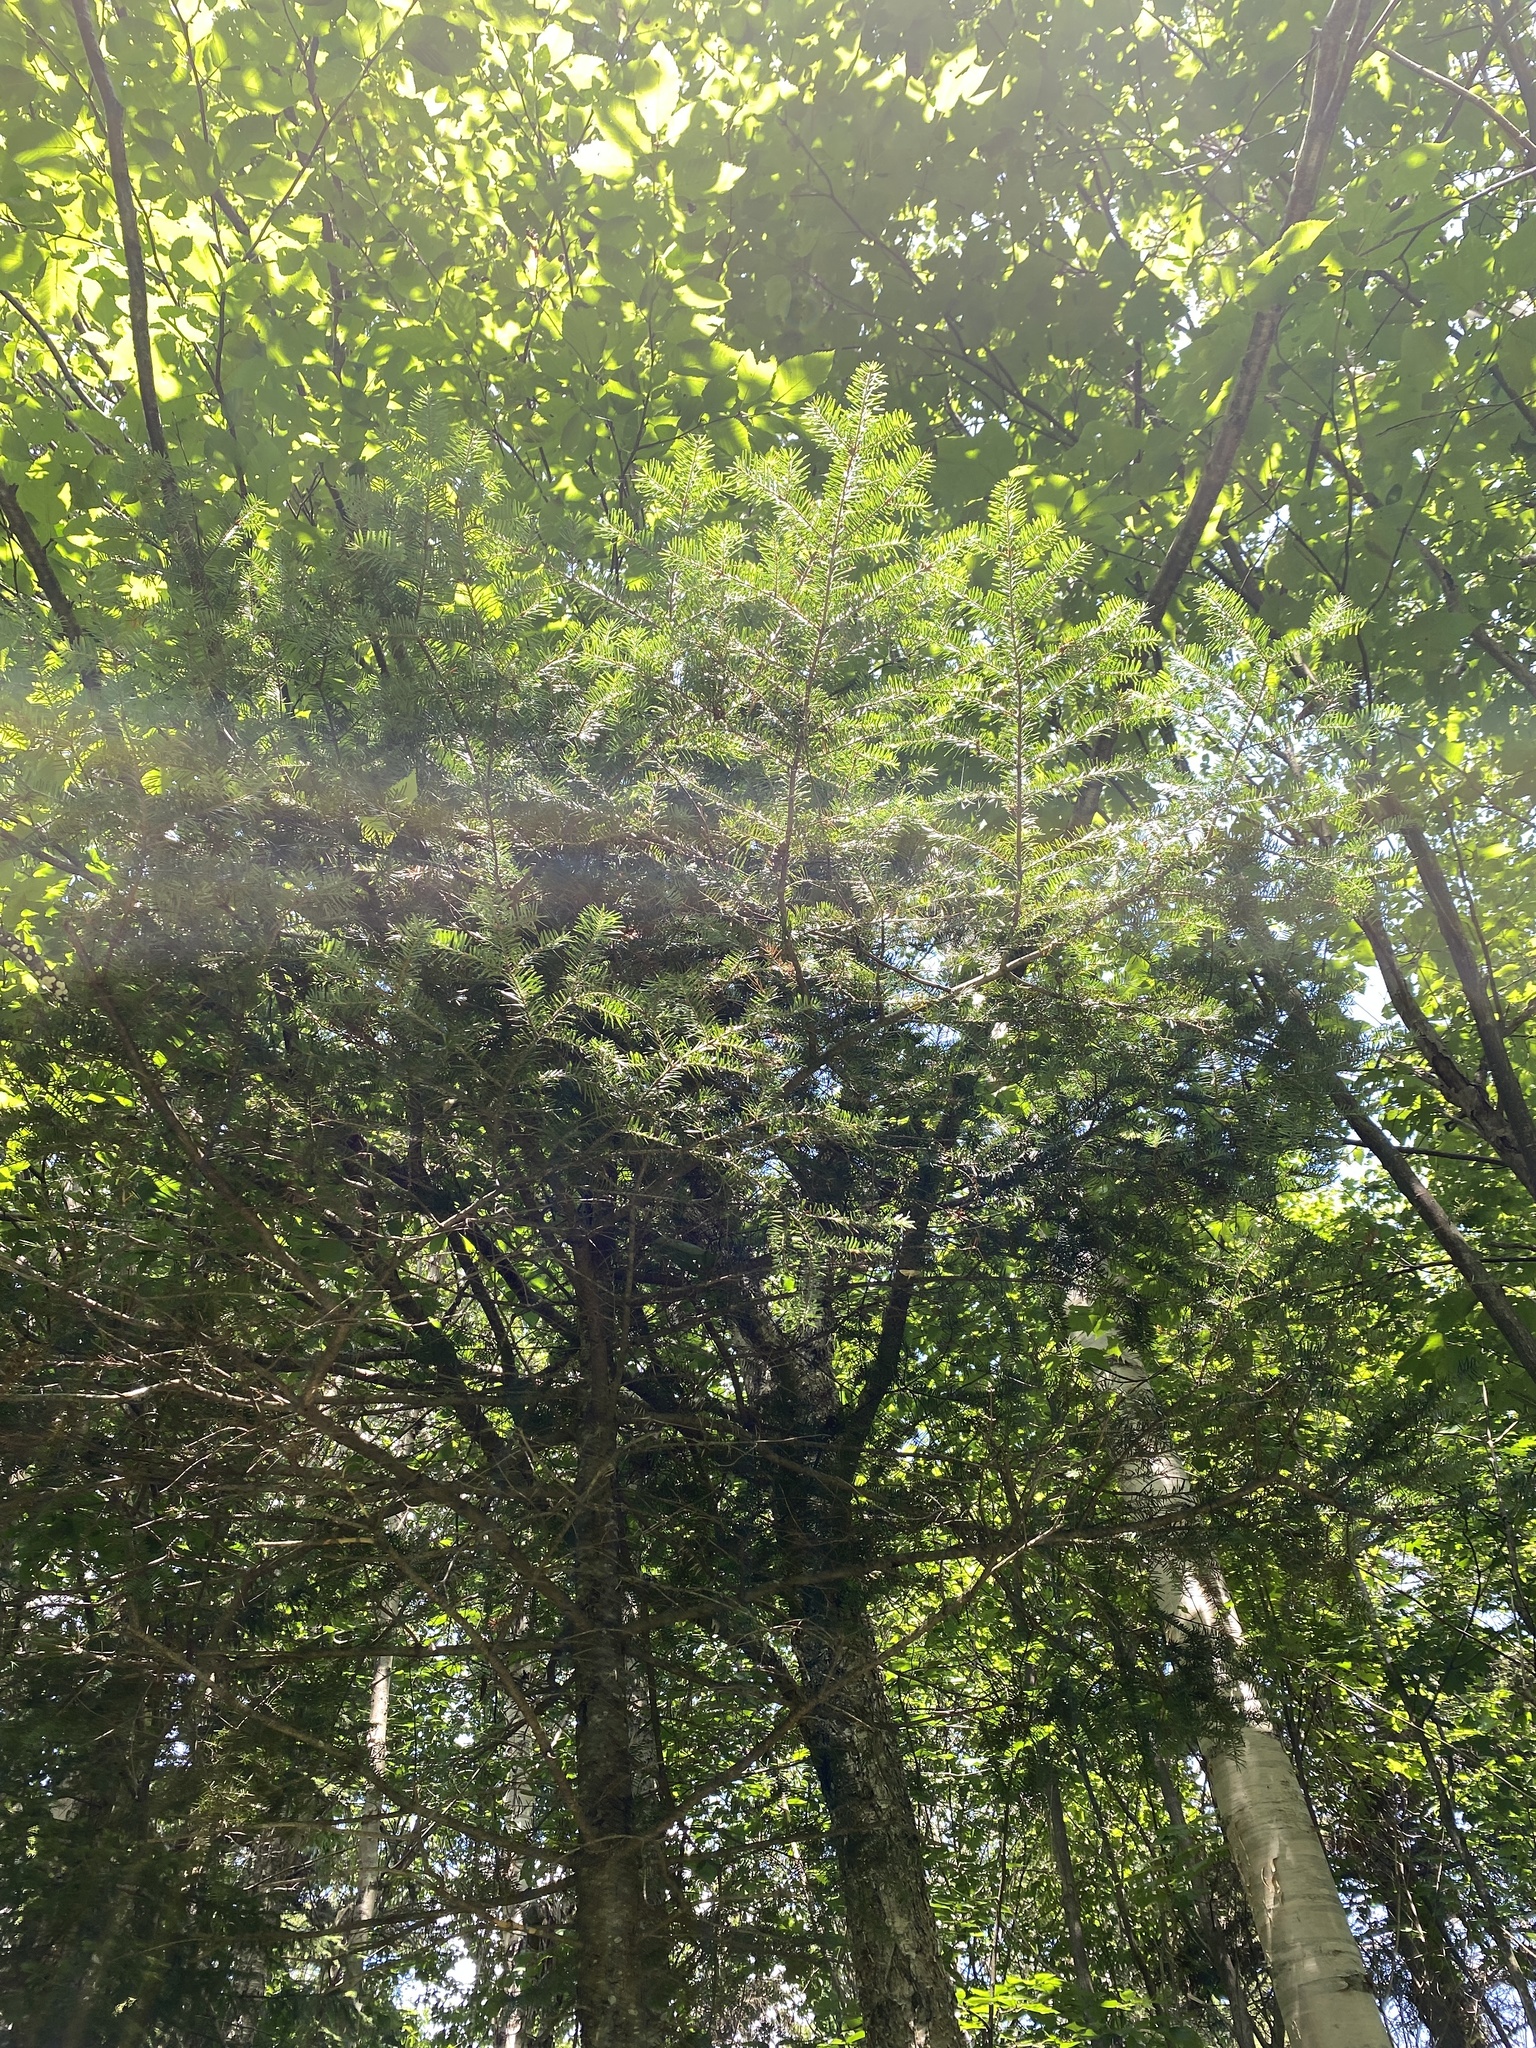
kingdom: Plantae
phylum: Tracheophyta
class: Pinopsida
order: Pinales
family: Pinaceae
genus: Abies
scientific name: Abies balsamea
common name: Balsam fir
